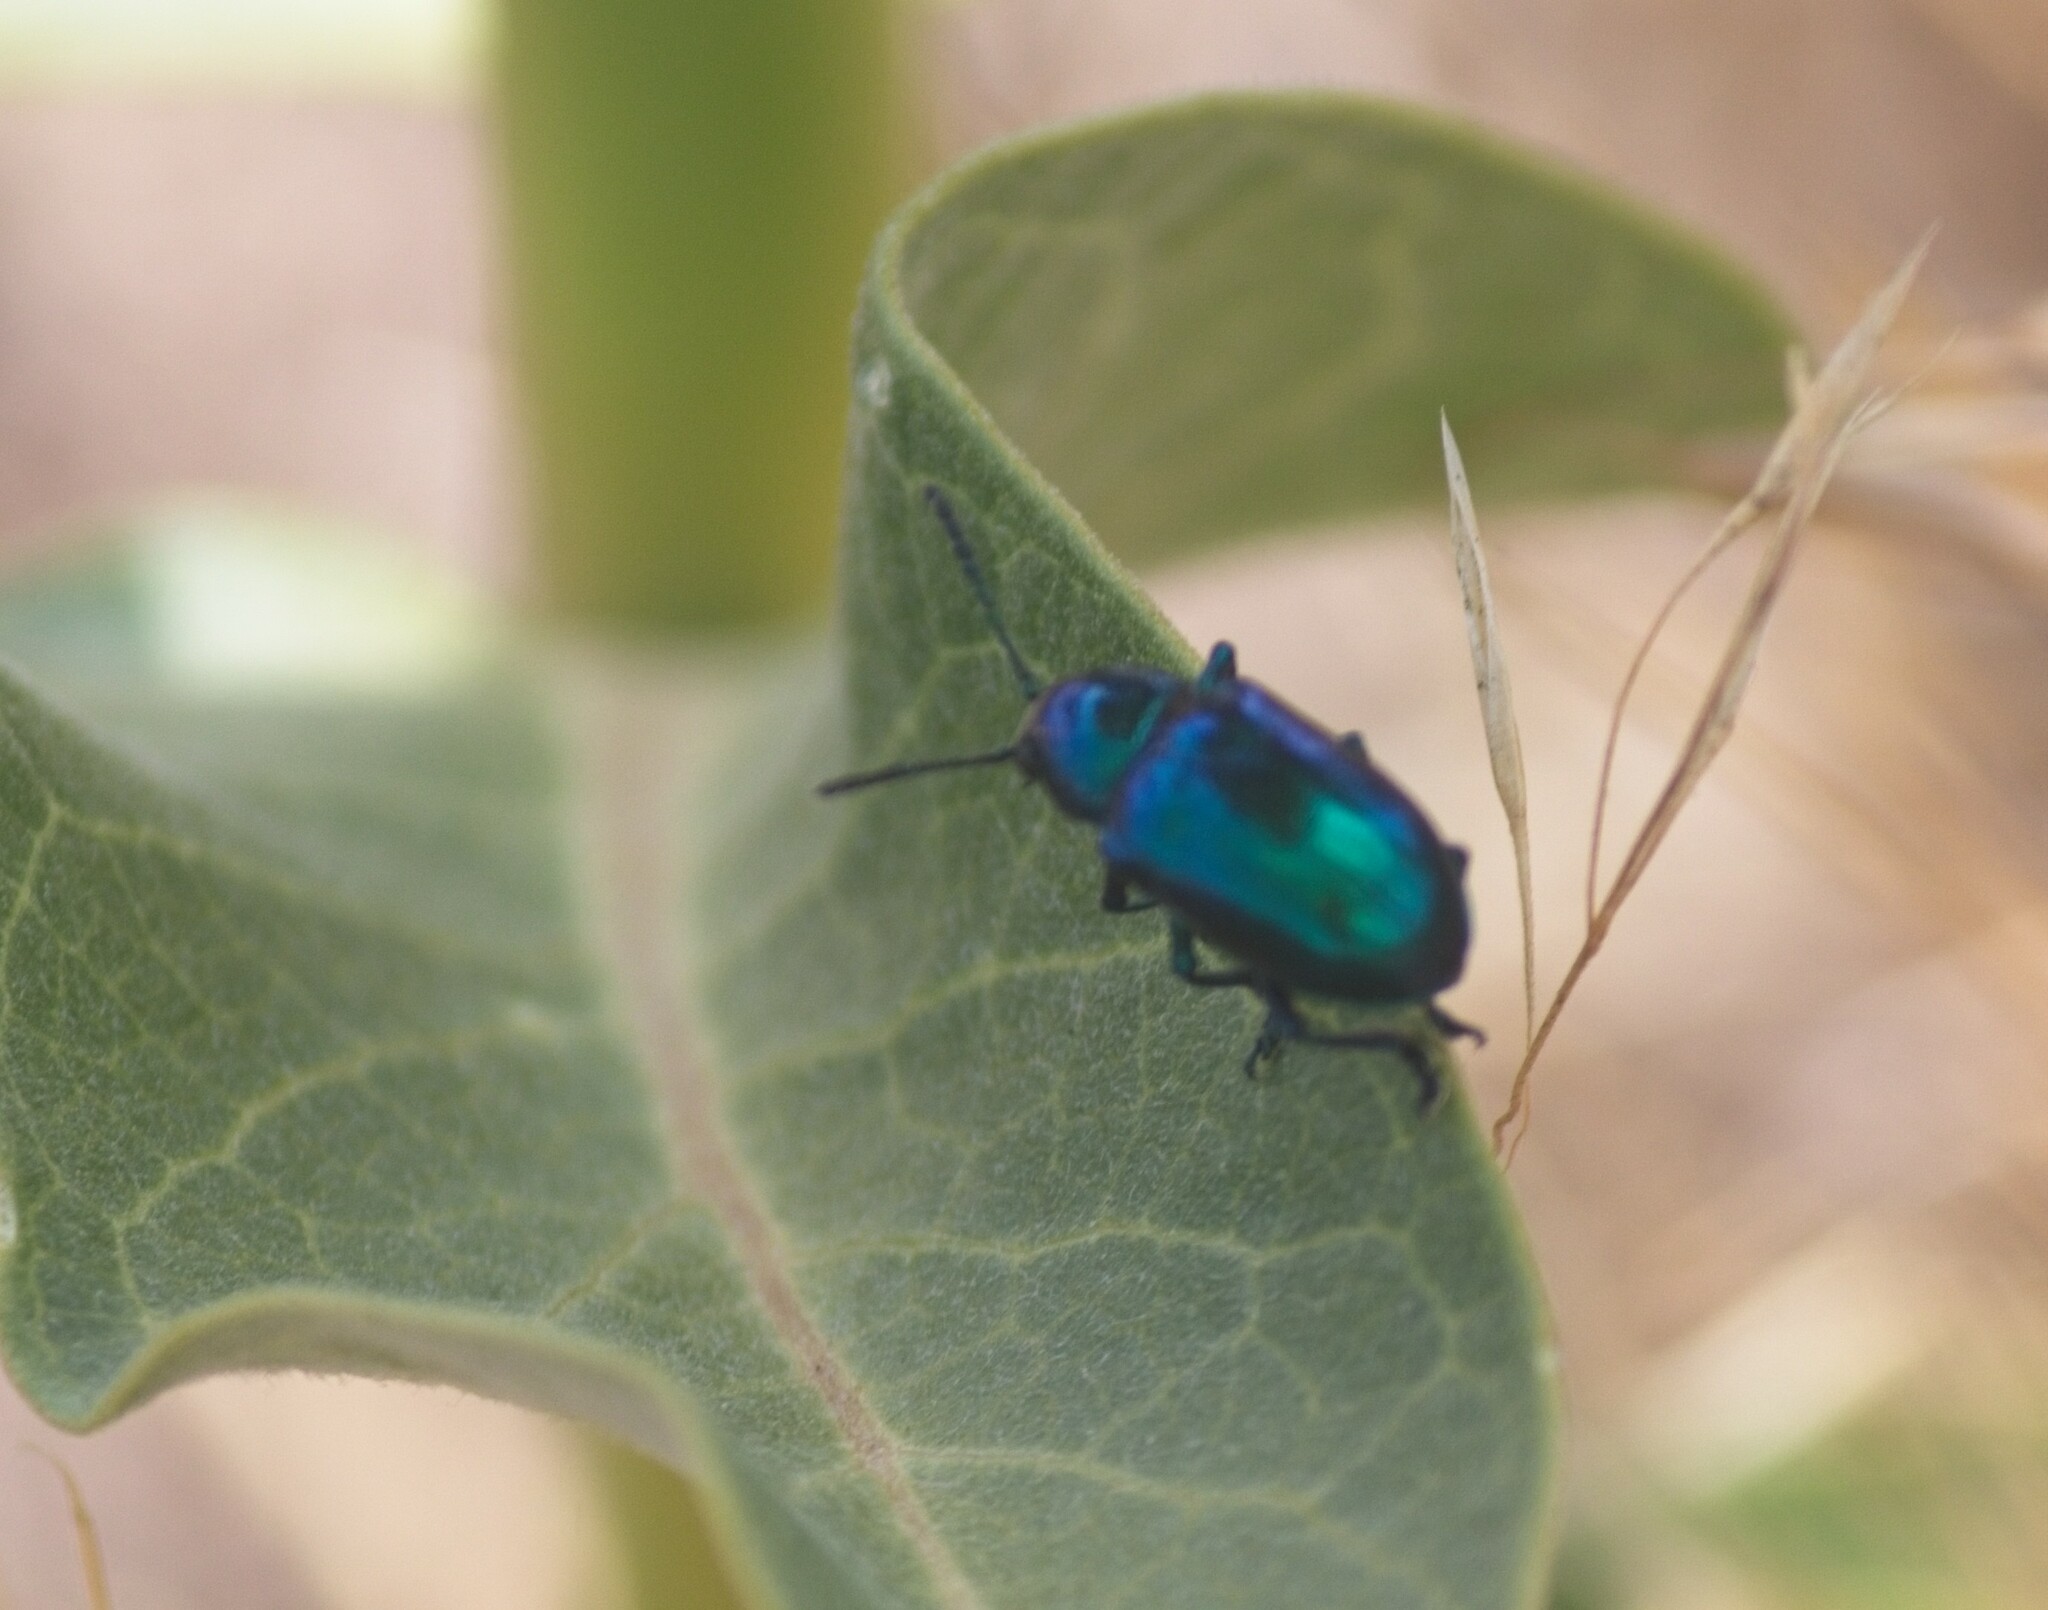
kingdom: Animalia
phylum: Arthropoda
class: Insecta
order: Coleoptera
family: Chrysomelidae
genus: Chrysochus
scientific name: Chrysochus cobaltinus
